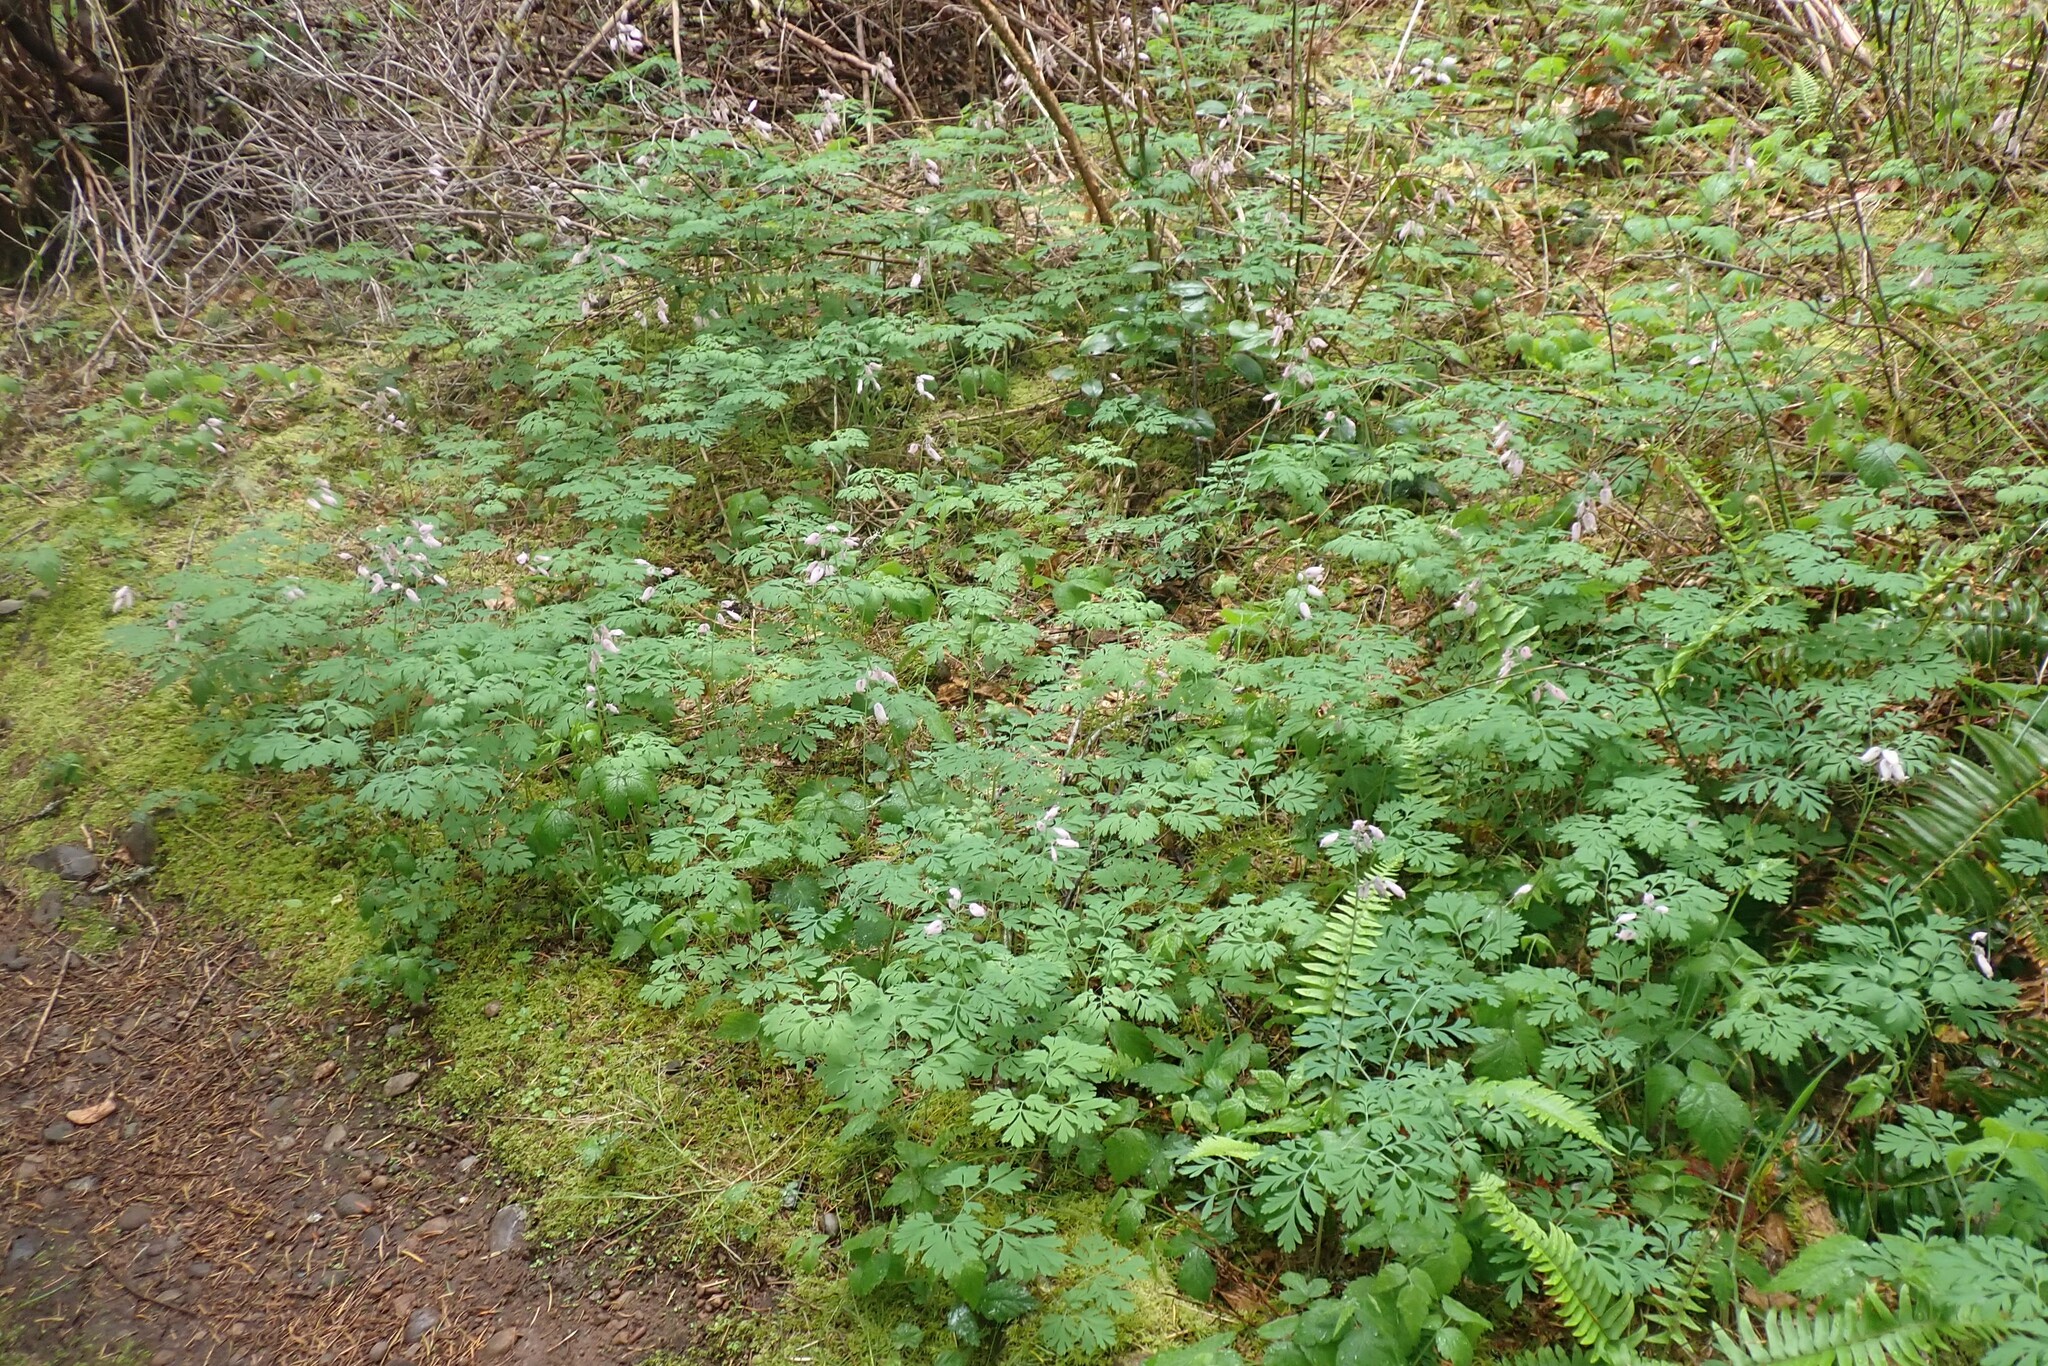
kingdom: Plantae
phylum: Tracheophyta
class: Magnoliopsida
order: Ranunculales
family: Papaveraceae
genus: Dicentra
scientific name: Dicentra formosa
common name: Bleeding-heart
